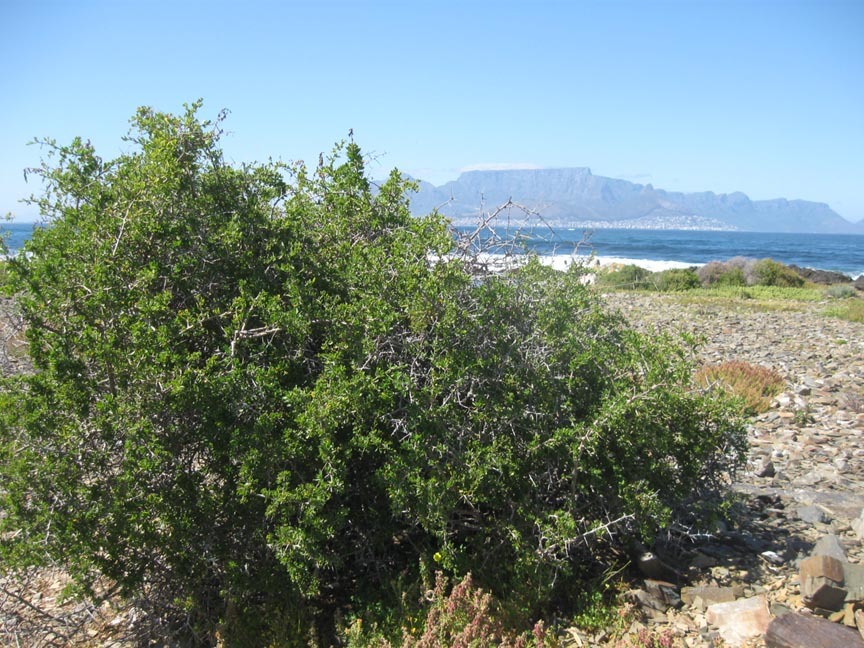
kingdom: Plantae
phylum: Tracheophyta
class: Magnoliopsida
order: Solanales
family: Solanaceae
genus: Lycium
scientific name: Lycium ferocissimum
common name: African boxthorn
